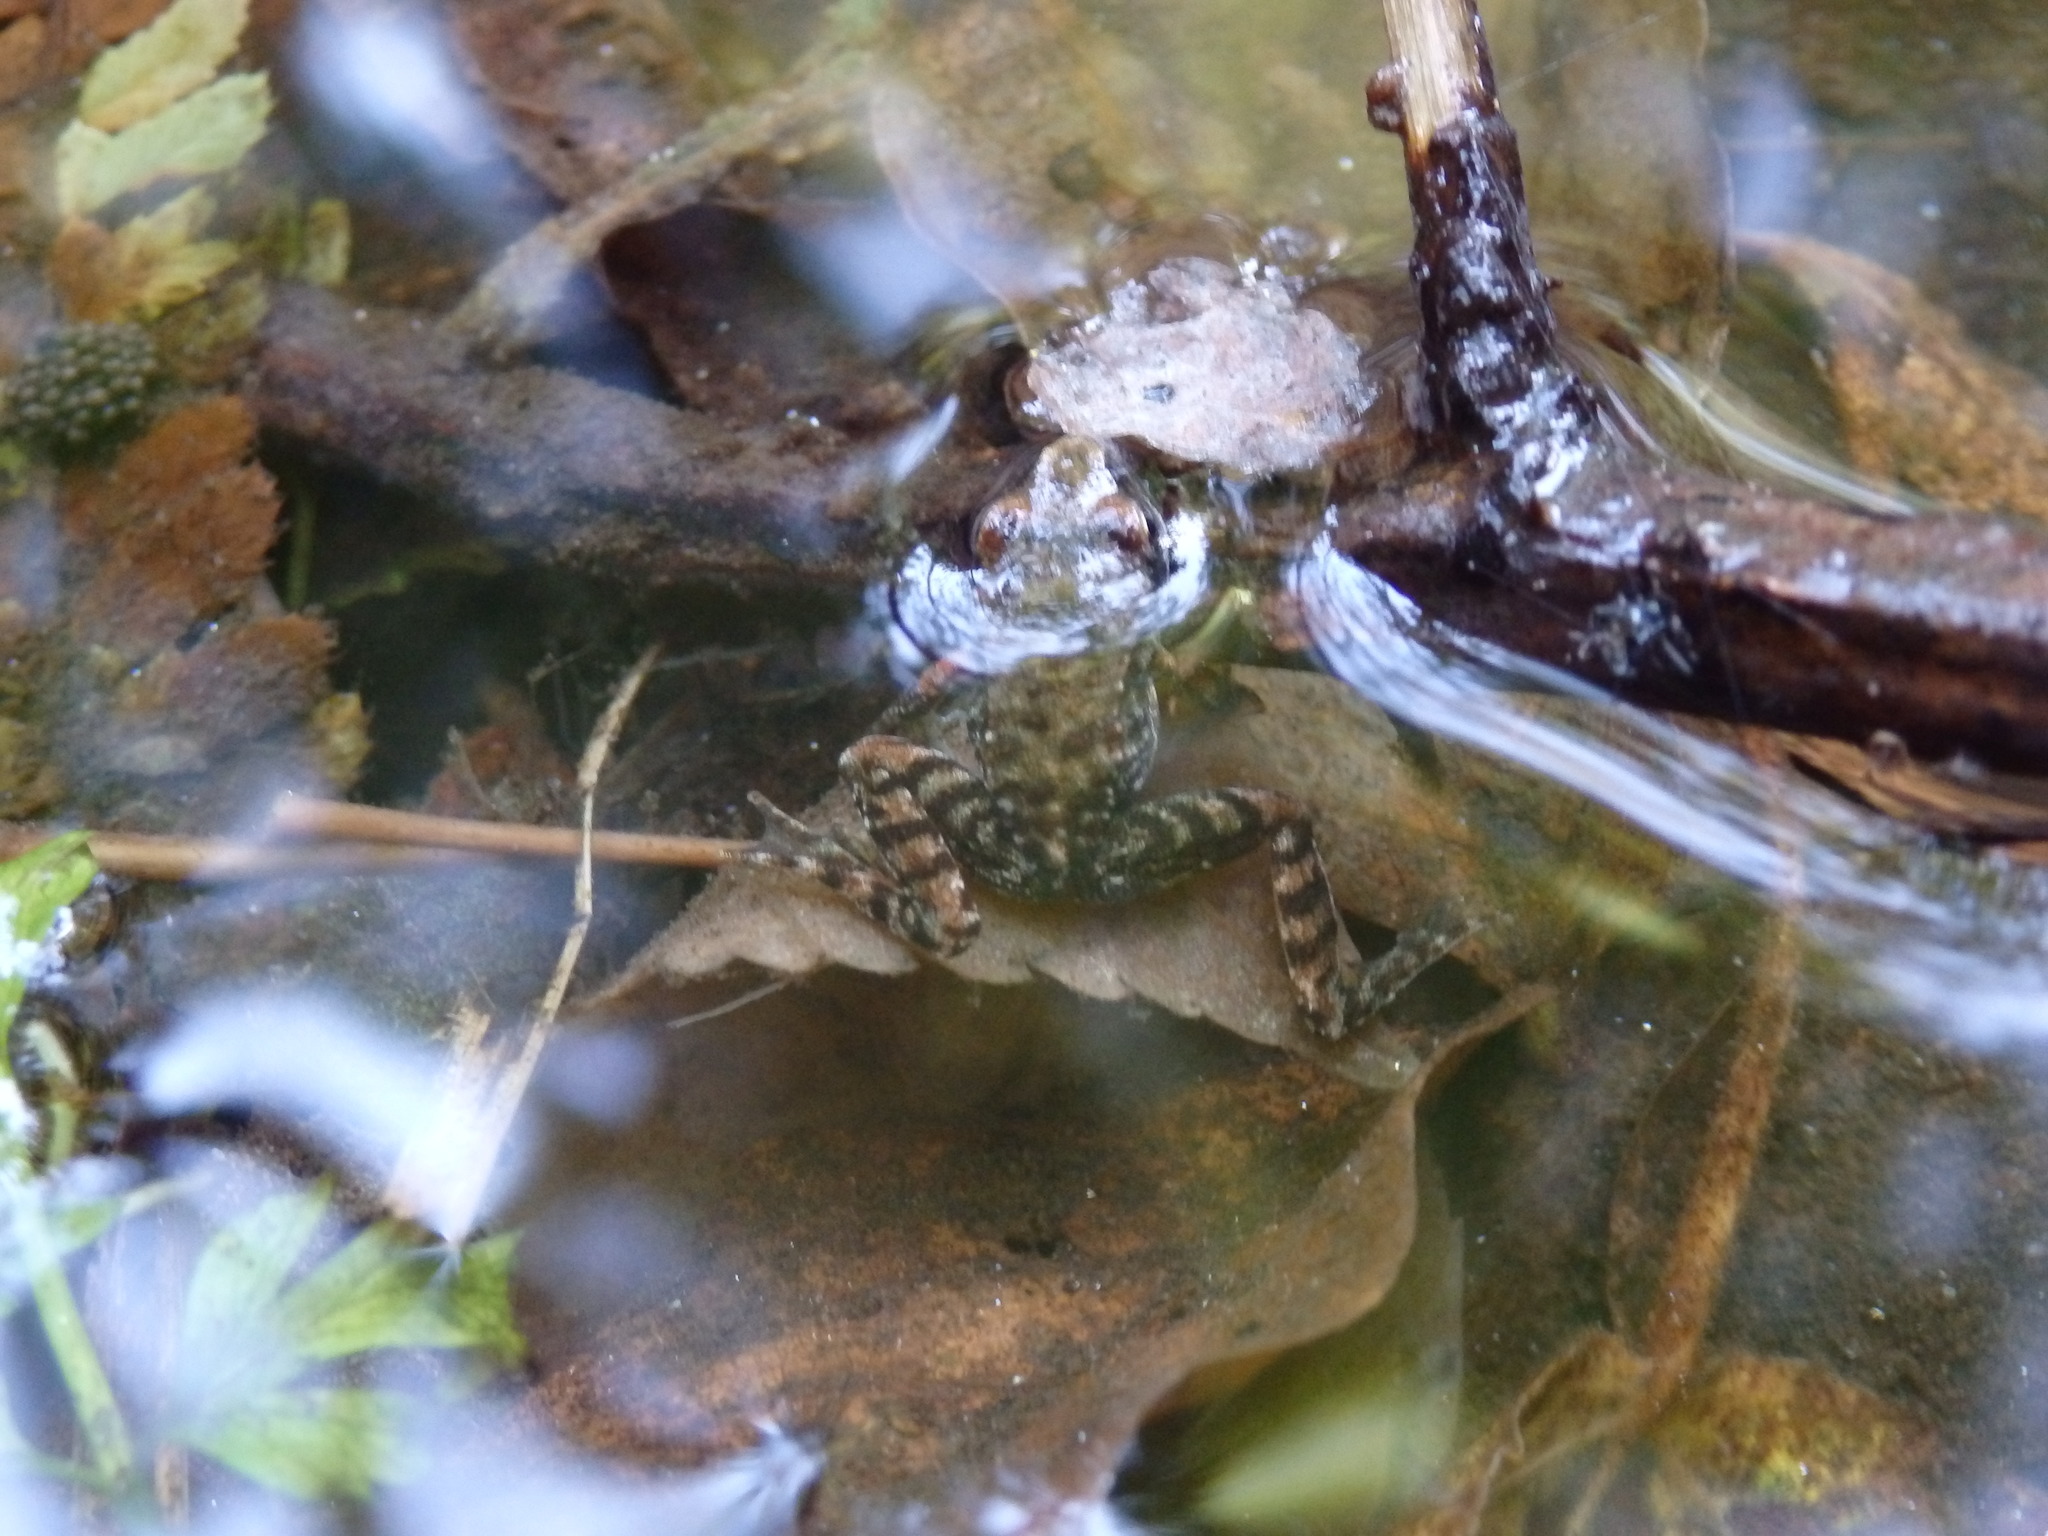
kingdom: Animalia
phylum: Chordata
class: Amphibia
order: Anura
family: Ranidae
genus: Rana
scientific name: Rana iberica
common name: Iberian frog
